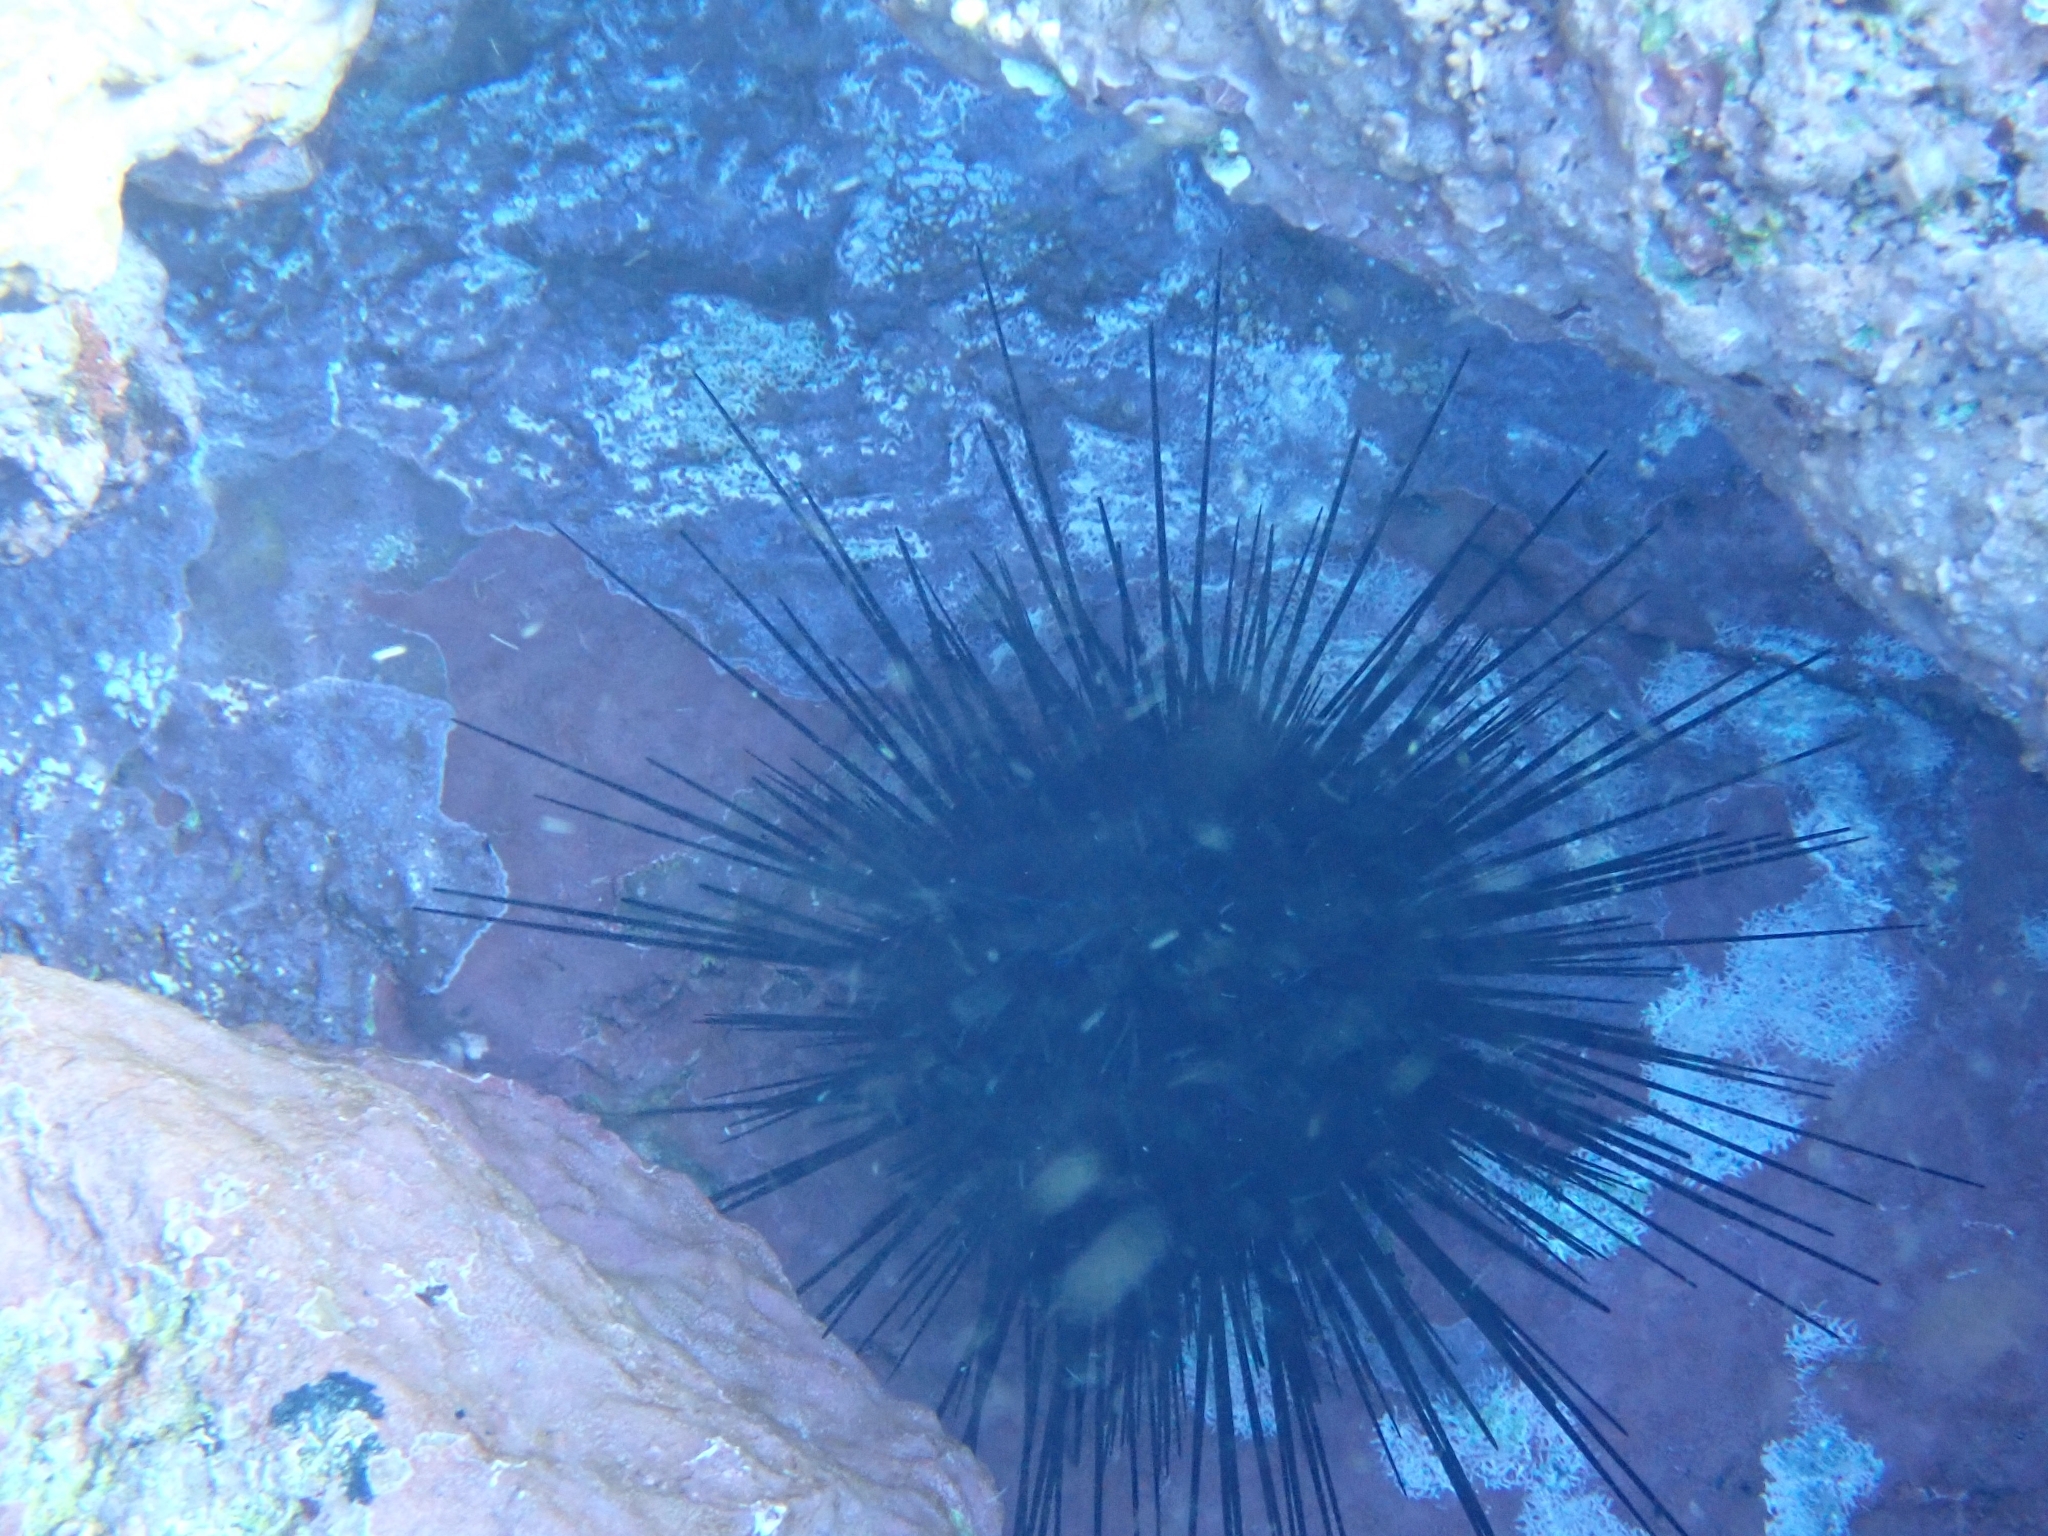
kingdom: Animalia
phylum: Echinodermata
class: Echinoidea
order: Diadematoida
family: Diadematidae
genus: Diadema
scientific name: Diadema africanum
